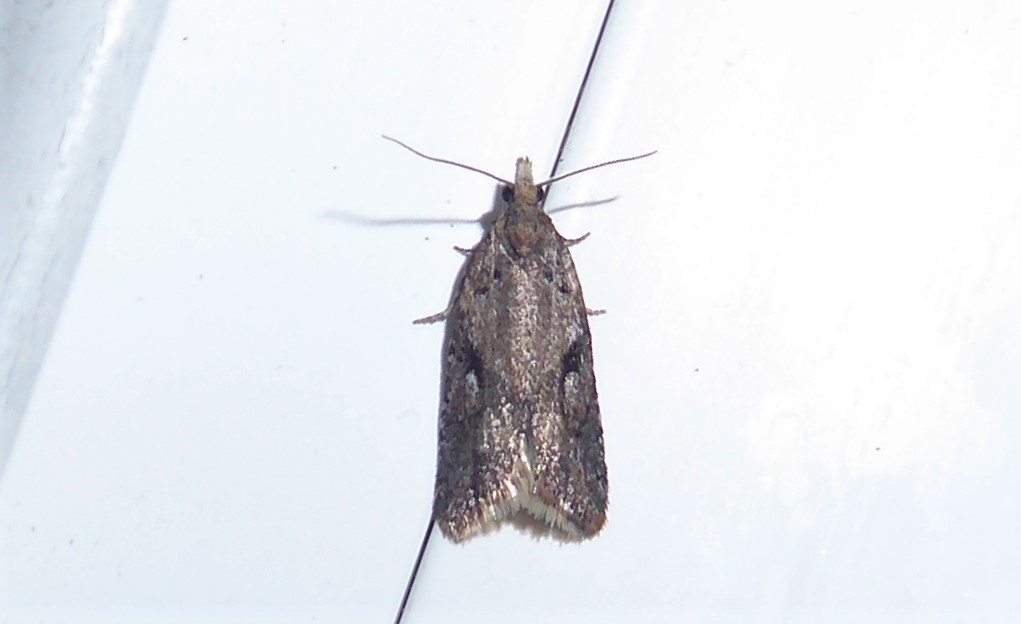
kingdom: Animalia
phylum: Arthropoda
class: Insecta
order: Lepidoptera
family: Tortricidae
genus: Capua
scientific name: Capua semiferana
